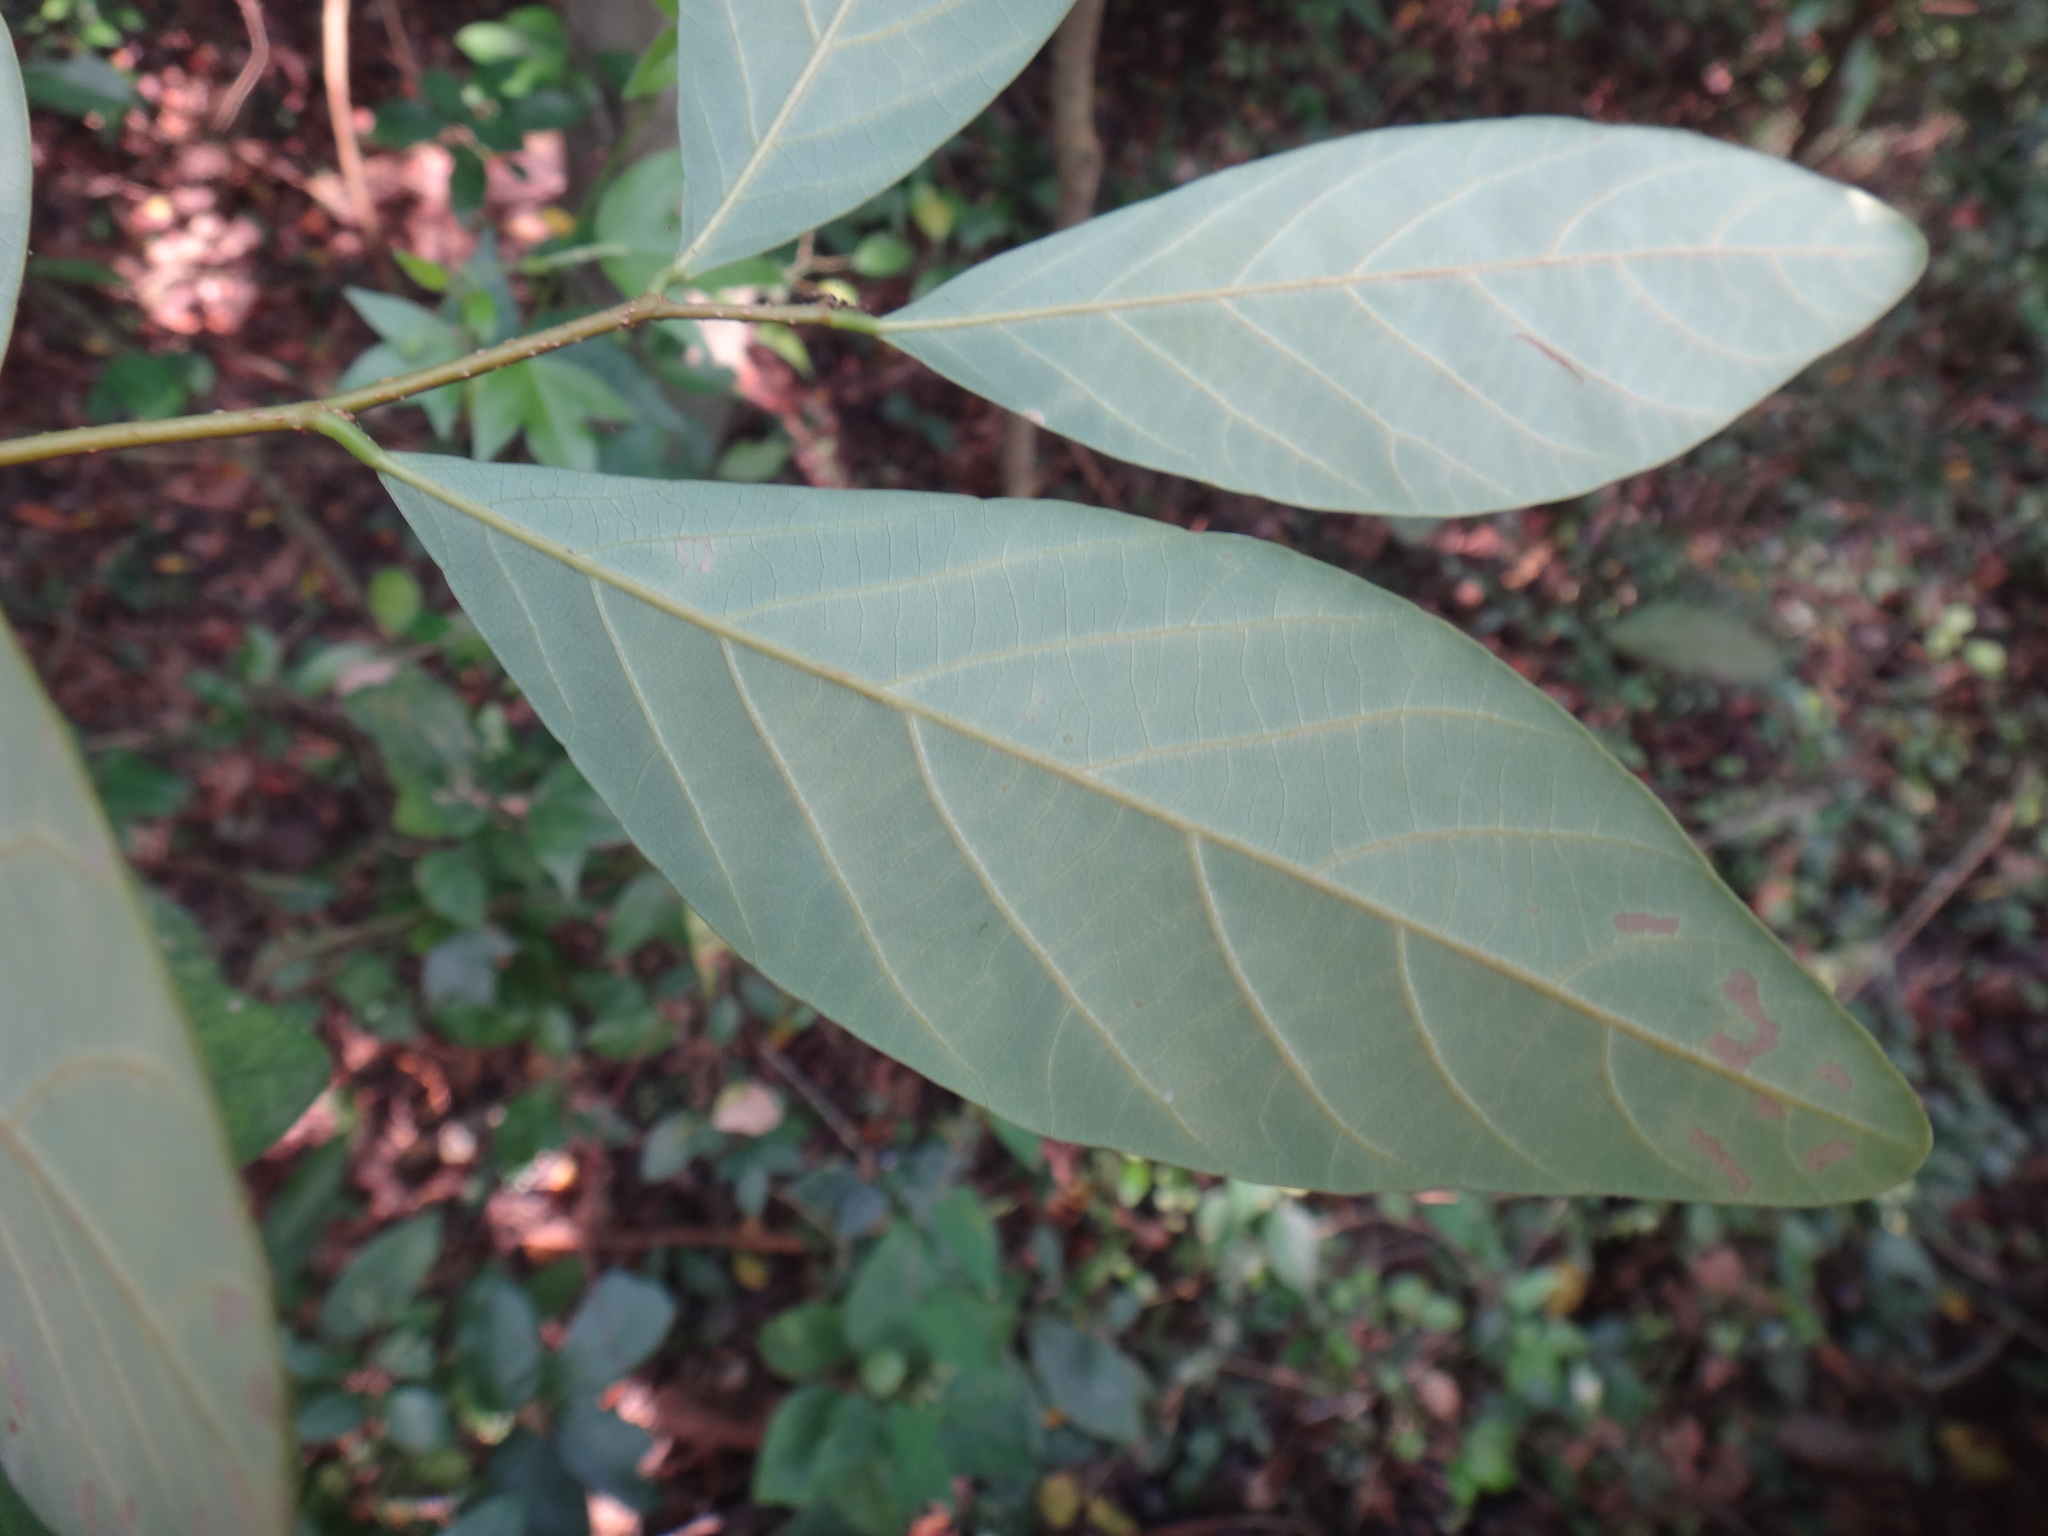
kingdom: Plantae
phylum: Tracheophyta
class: Magnoliopsida
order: Malpighiales
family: Phyllanthaceae
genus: Bridelia
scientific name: Bridelia tomentosa
